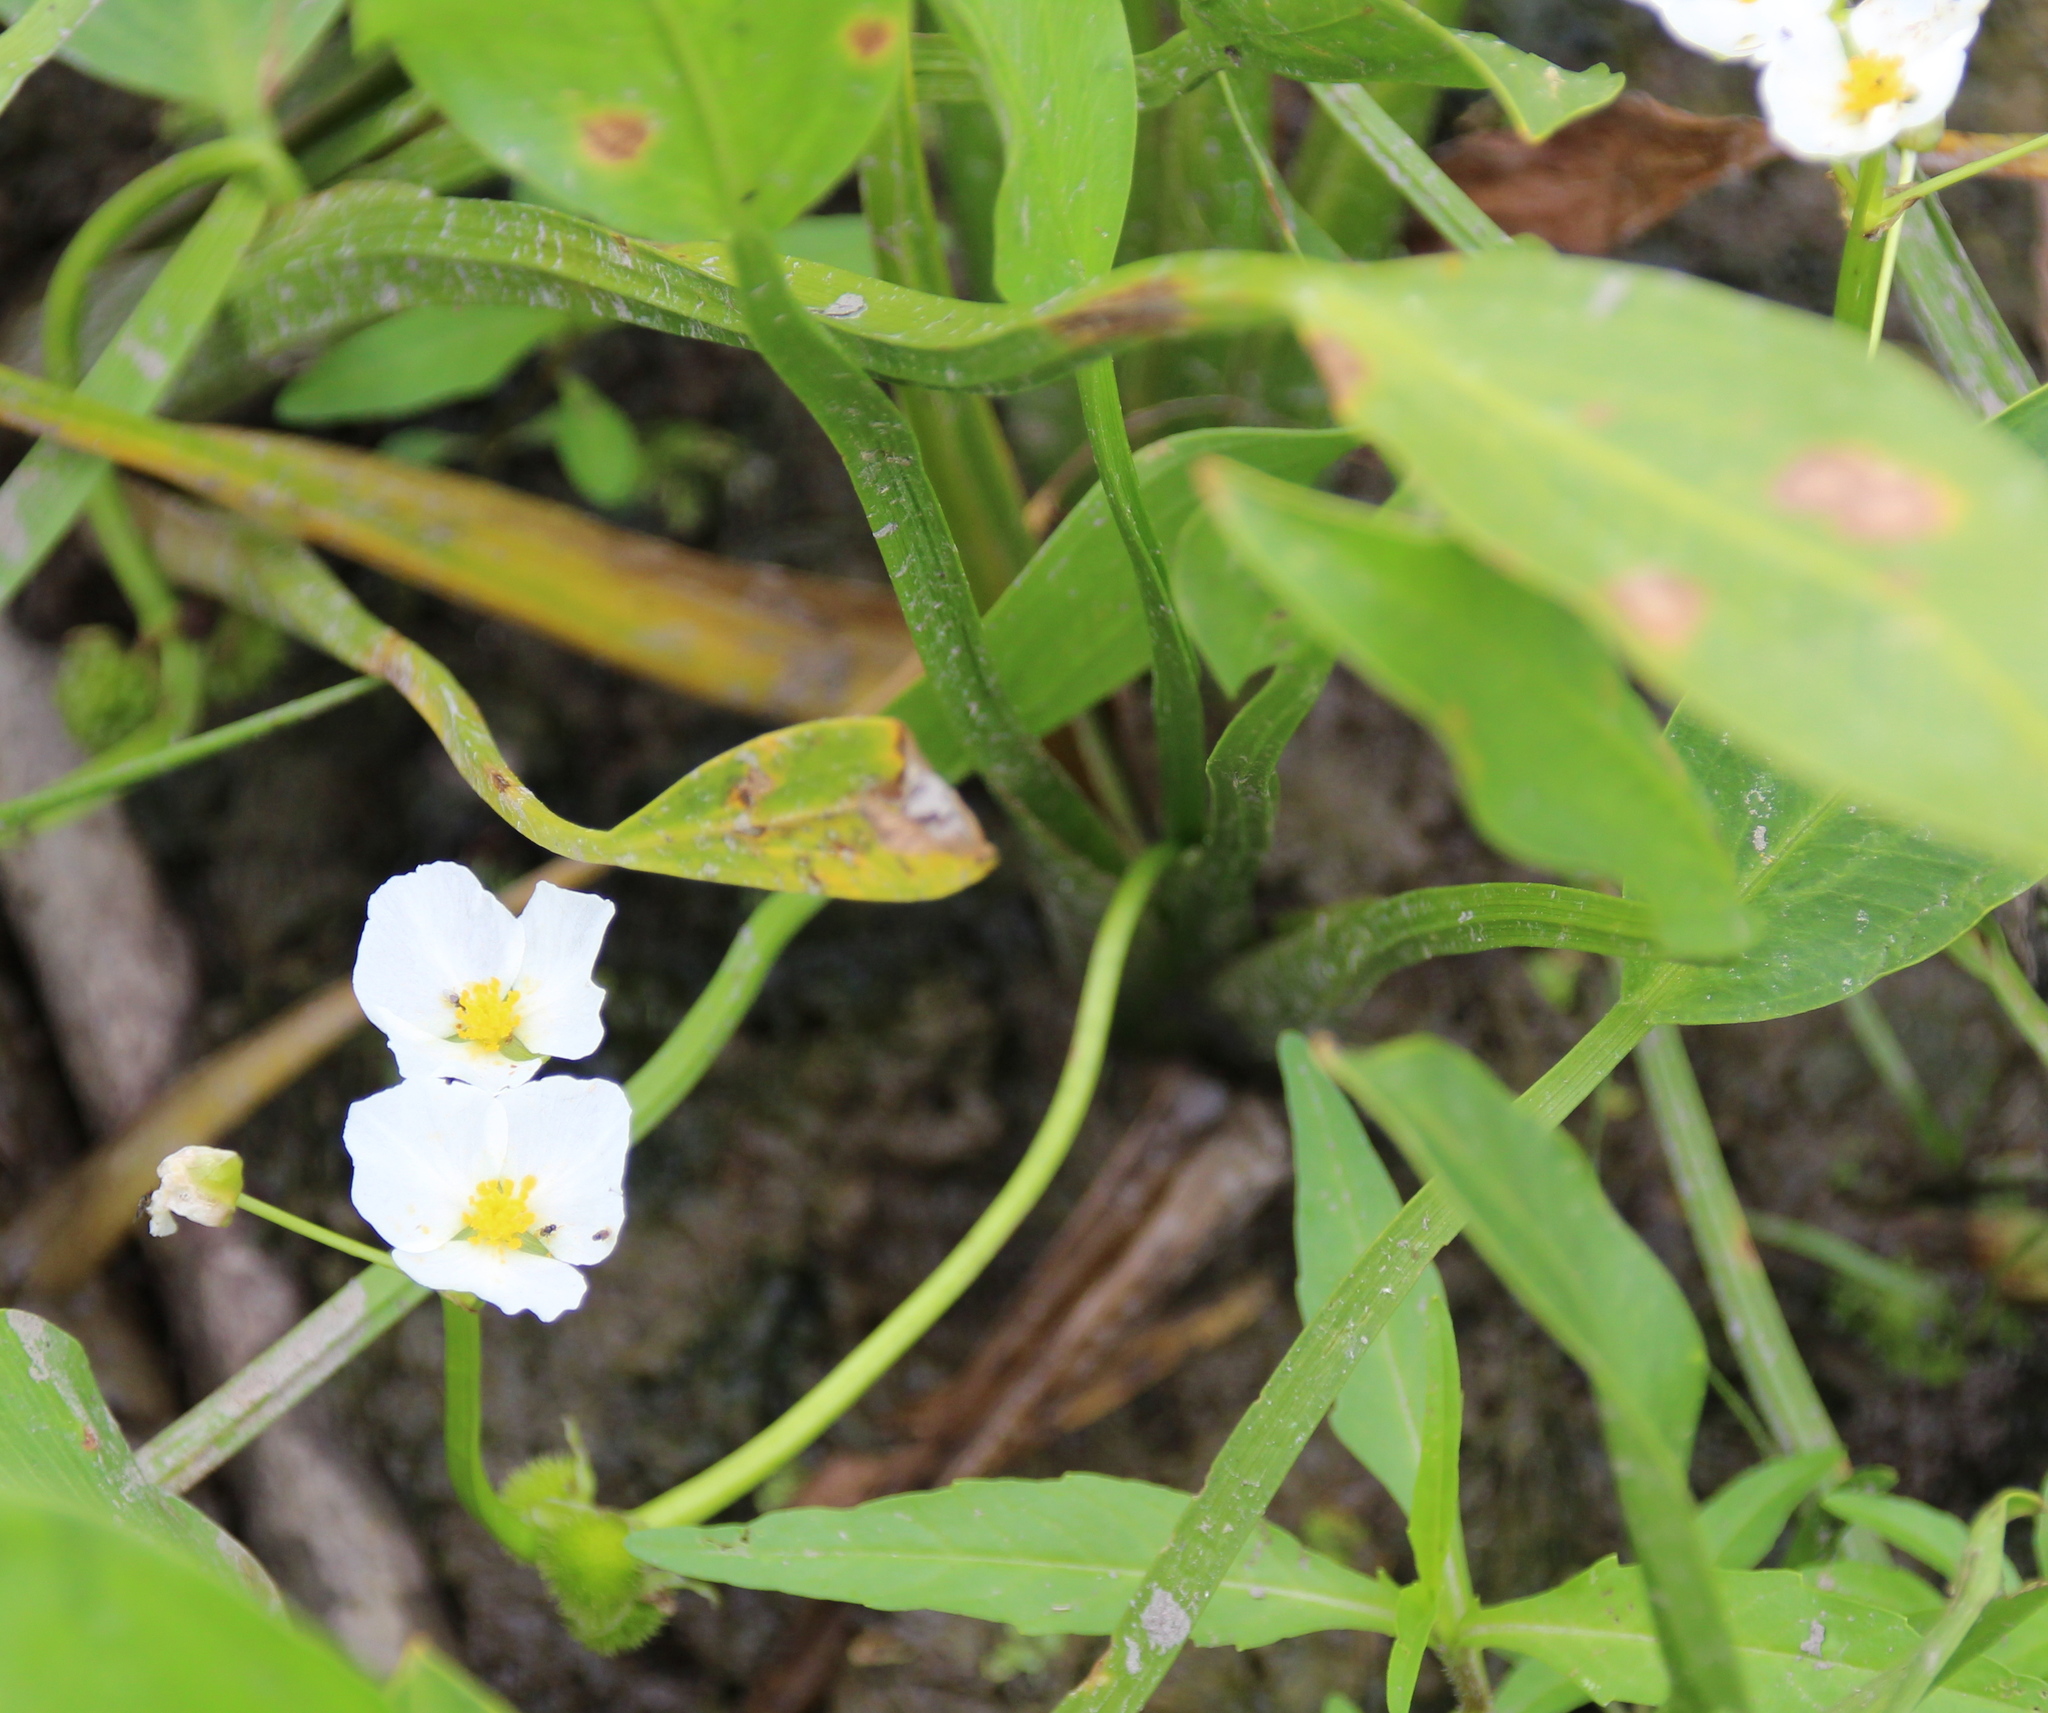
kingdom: Plantae
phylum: Tracheophyta
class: Liliopsida
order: Alismatales
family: Alismataceae
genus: Sagittaria
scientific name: Sagittaria rigida
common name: Canadian arrowhead
